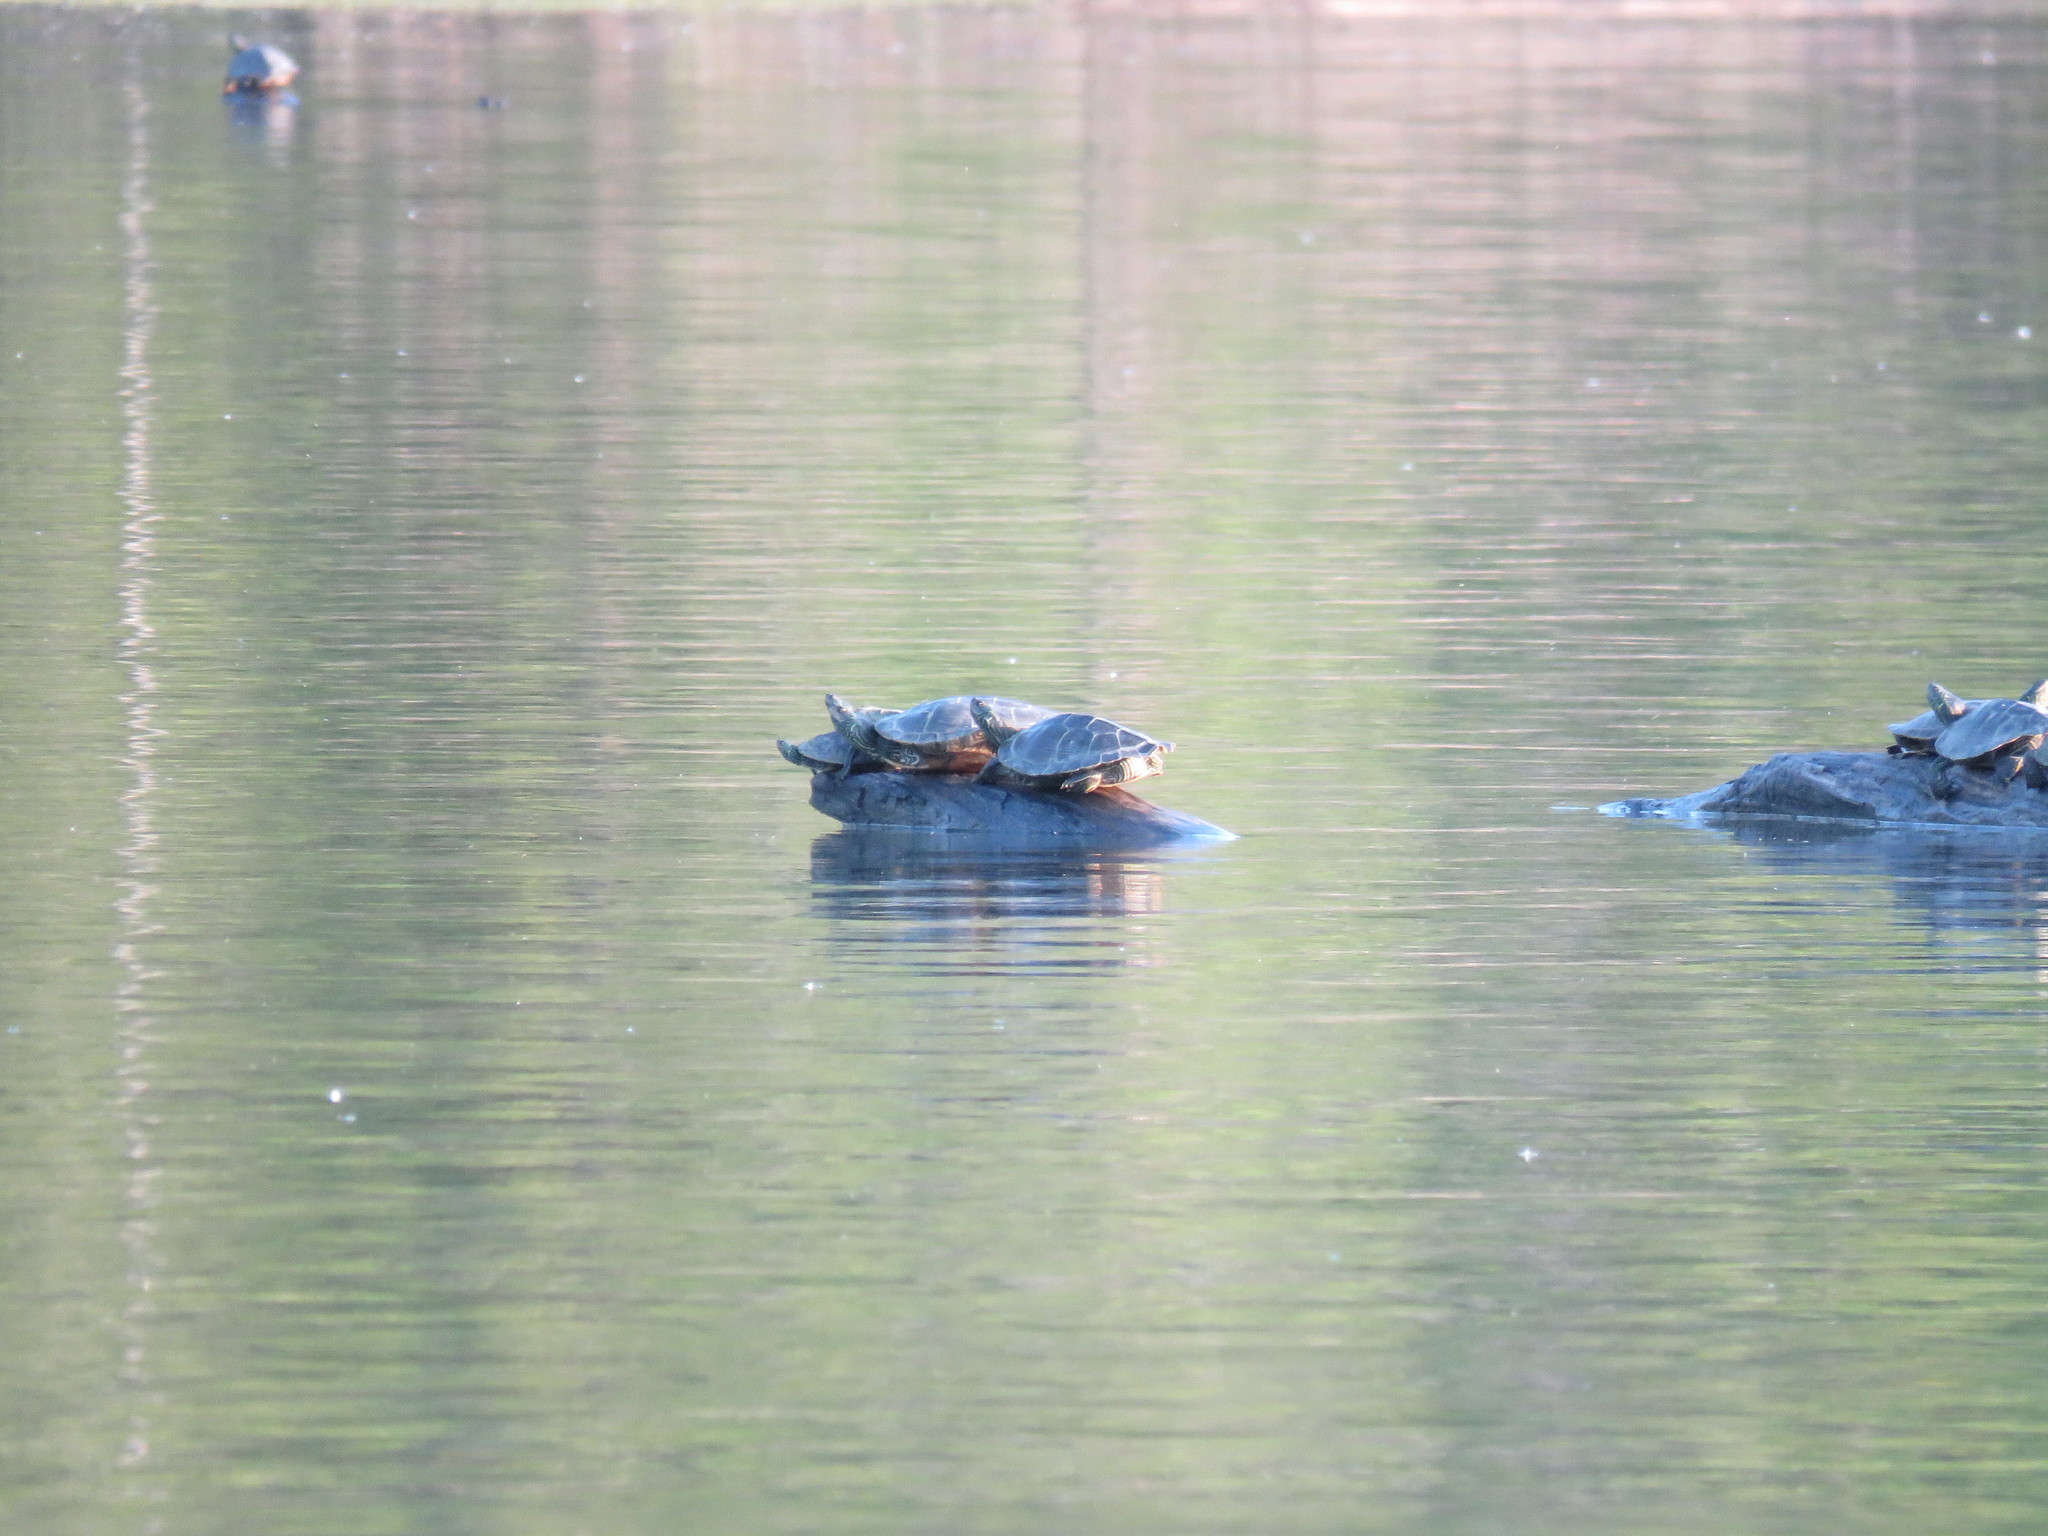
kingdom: Animalia
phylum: Chordata
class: Testudines
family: Emydidae
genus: Graptemys
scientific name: Graptemys geographica
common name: Common map turtle
